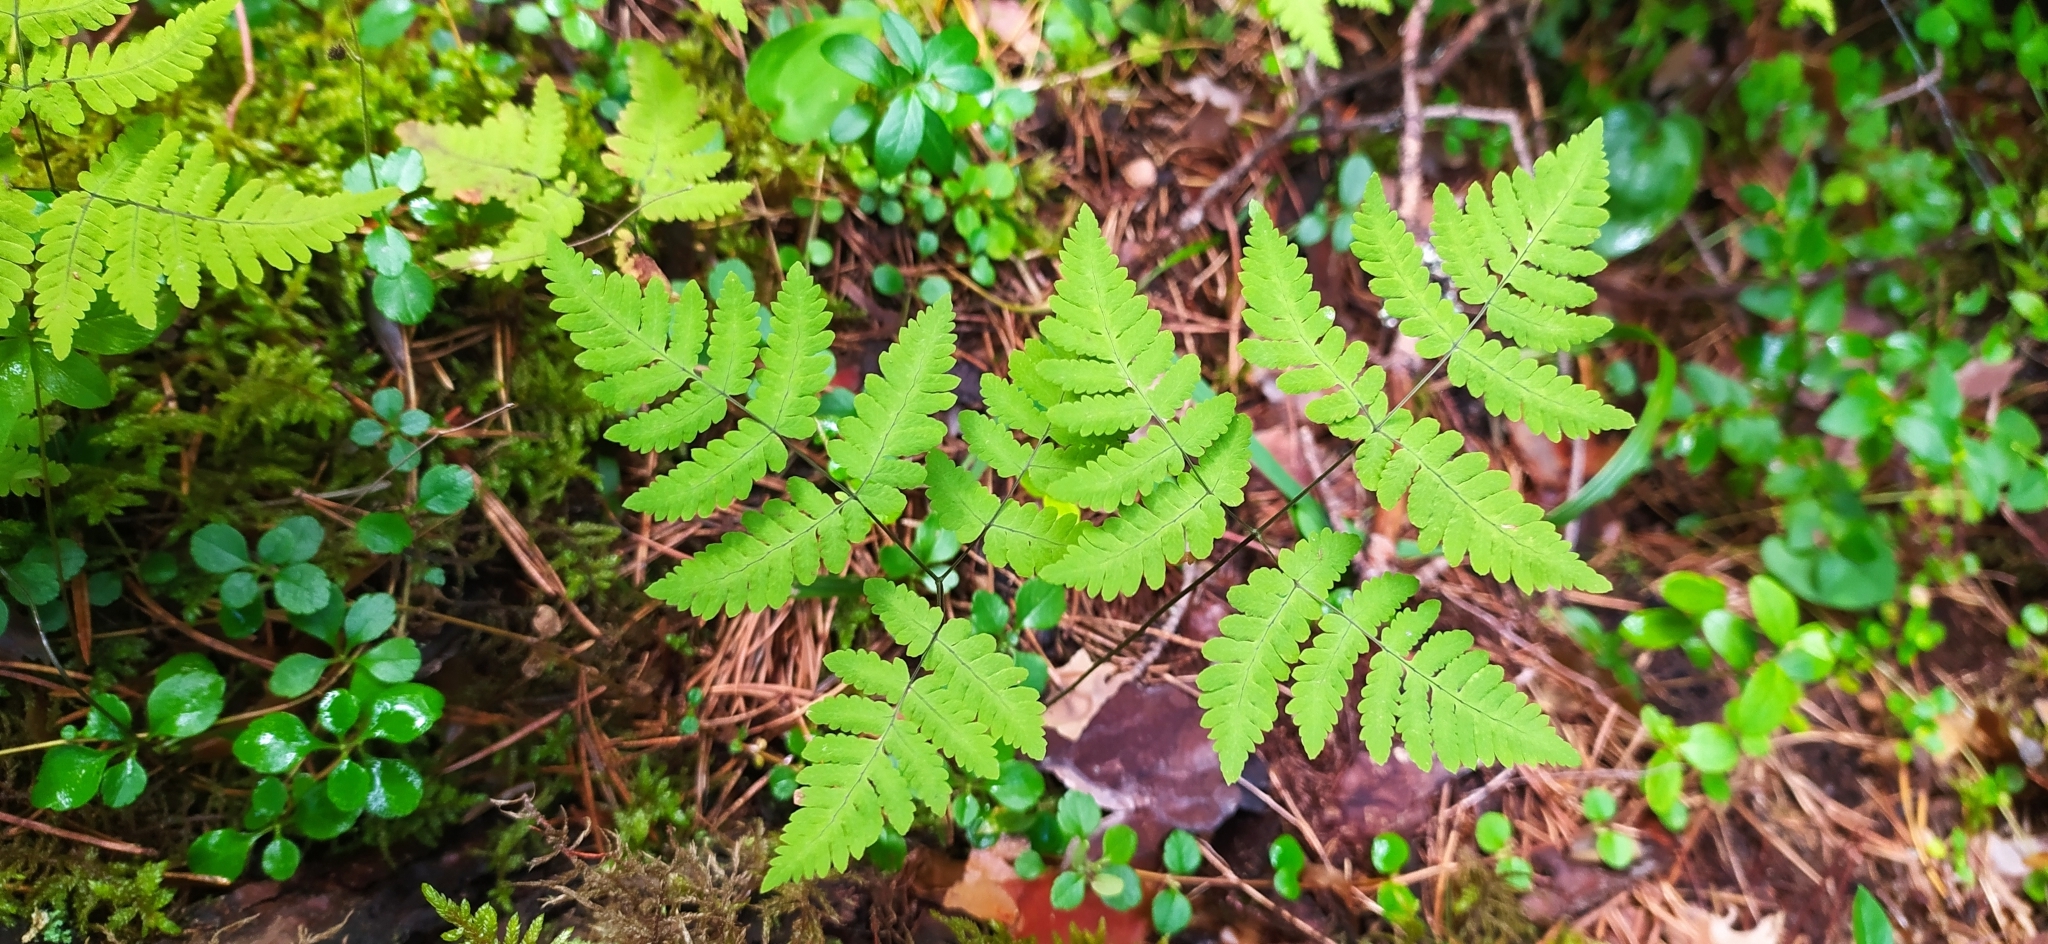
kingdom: Plantae
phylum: Tracheophyta
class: Polypodiopsida
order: Polypodiales
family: Cystopteridaceae
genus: Gymnocarpium
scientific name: Gymnocarpium dryopteris
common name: Oak fern
